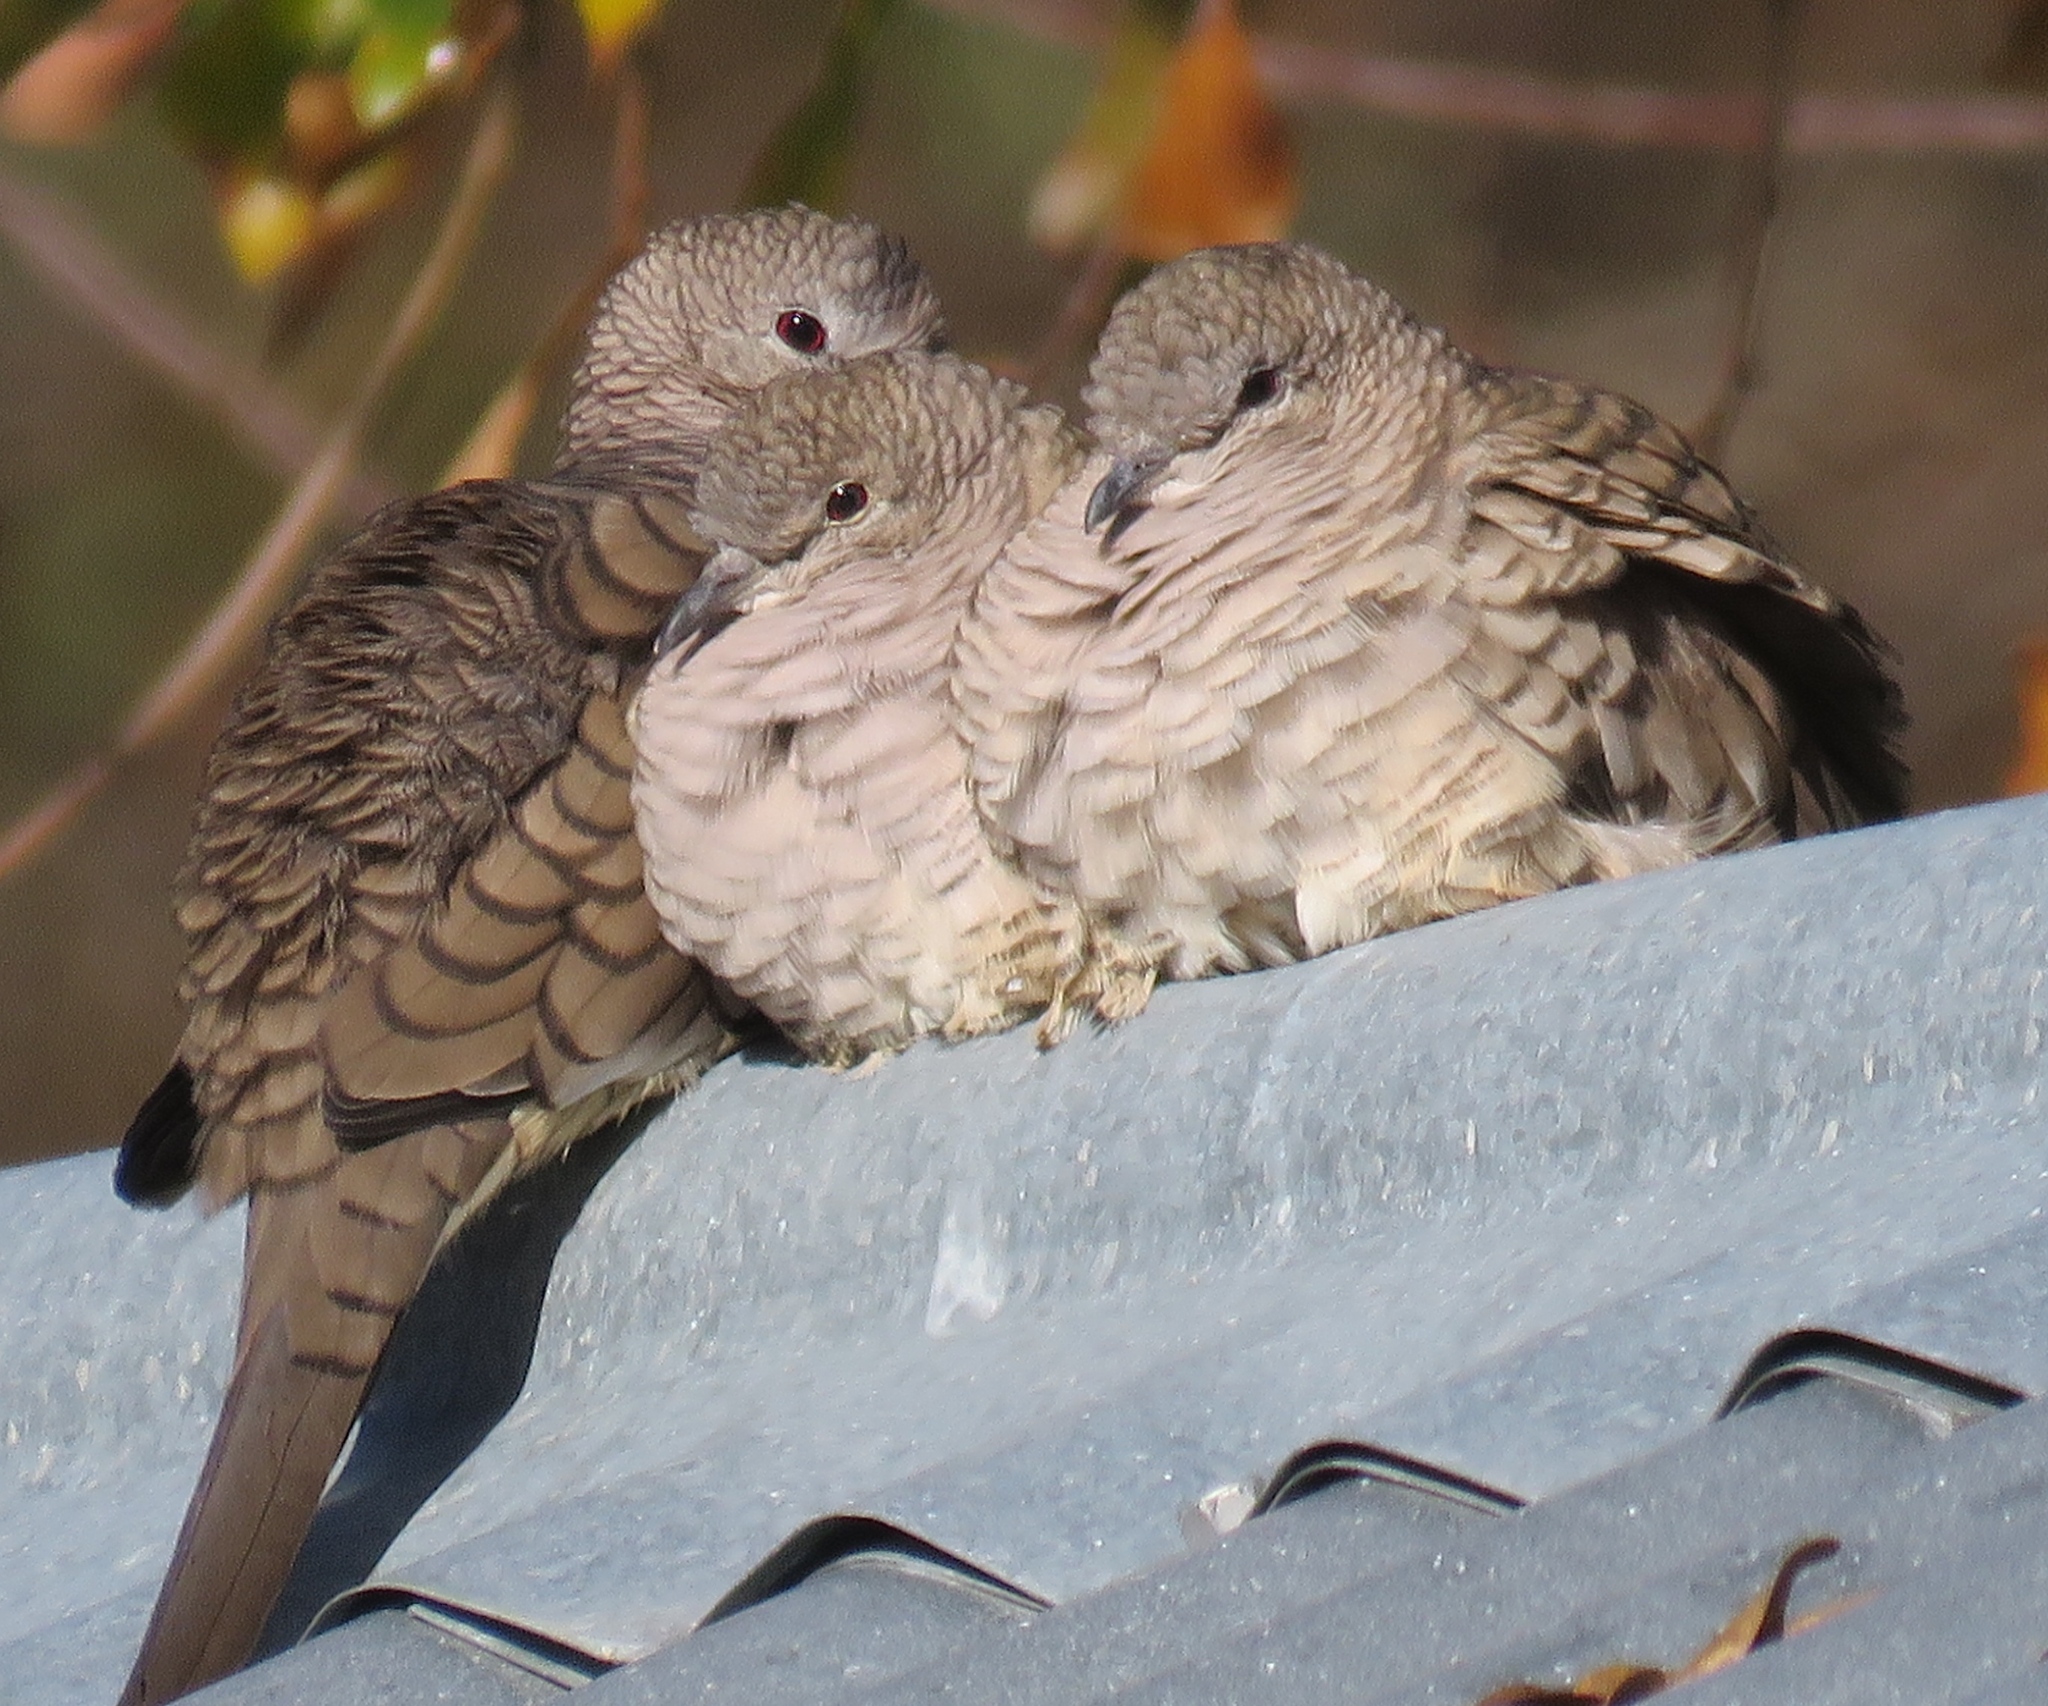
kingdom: Animalia
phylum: Chordata
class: Aves
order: Columbiformes
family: Columbidae
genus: Columbina
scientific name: Columbina inca
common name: Inca dove
